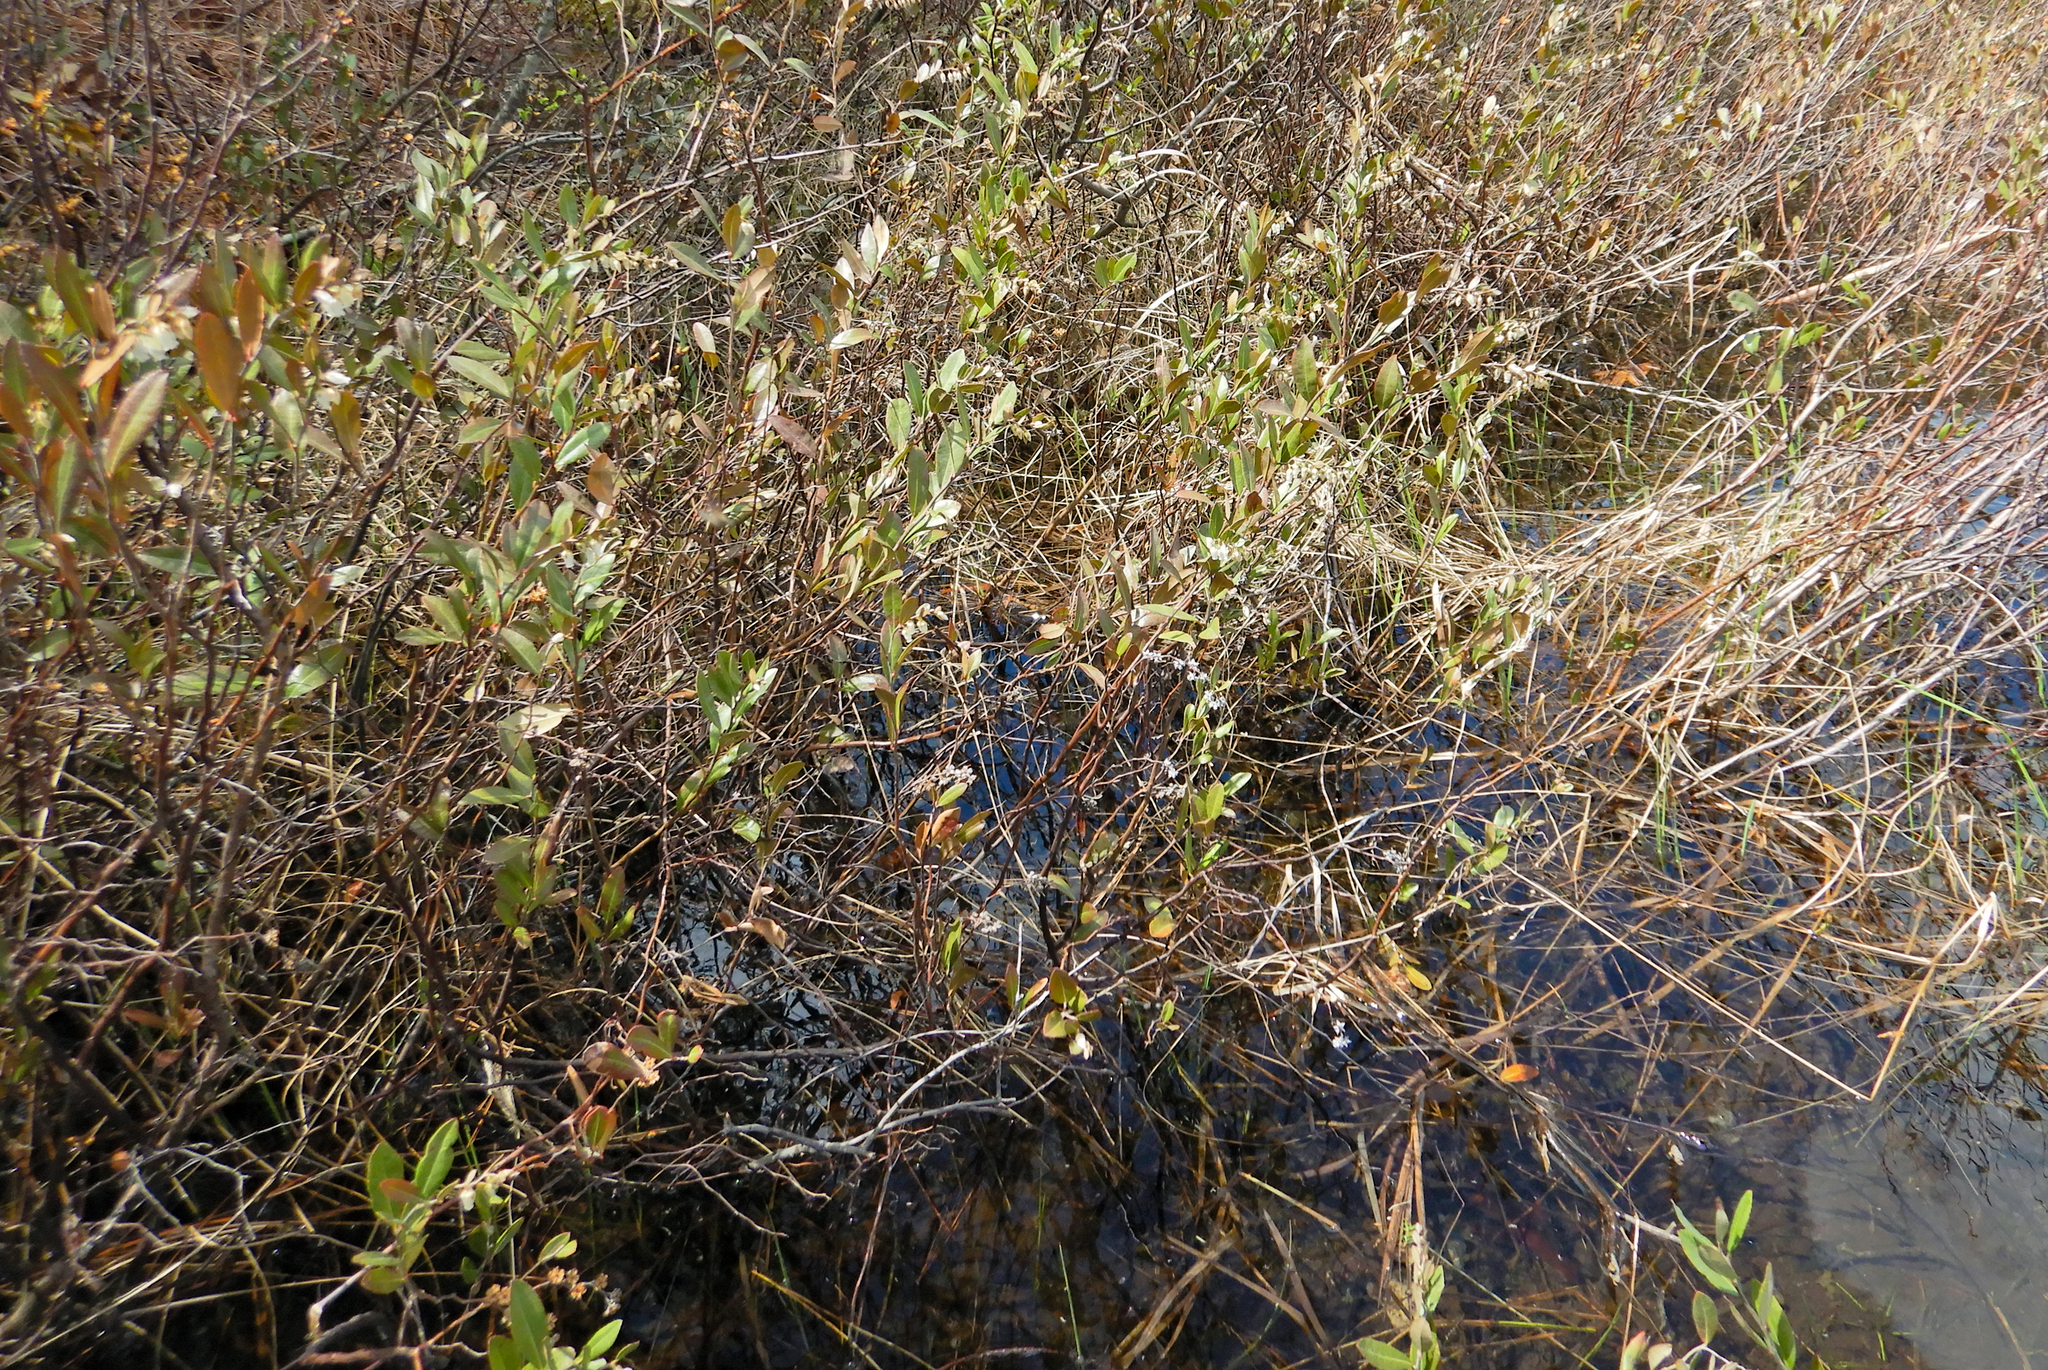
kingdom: Plantae
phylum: Tracheophyta
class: Magnoliopsida
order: Ericales
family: Ericaceae
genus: Chamaedaphne
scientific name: Chamaedaphne calyculata
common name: Leatherleaf
